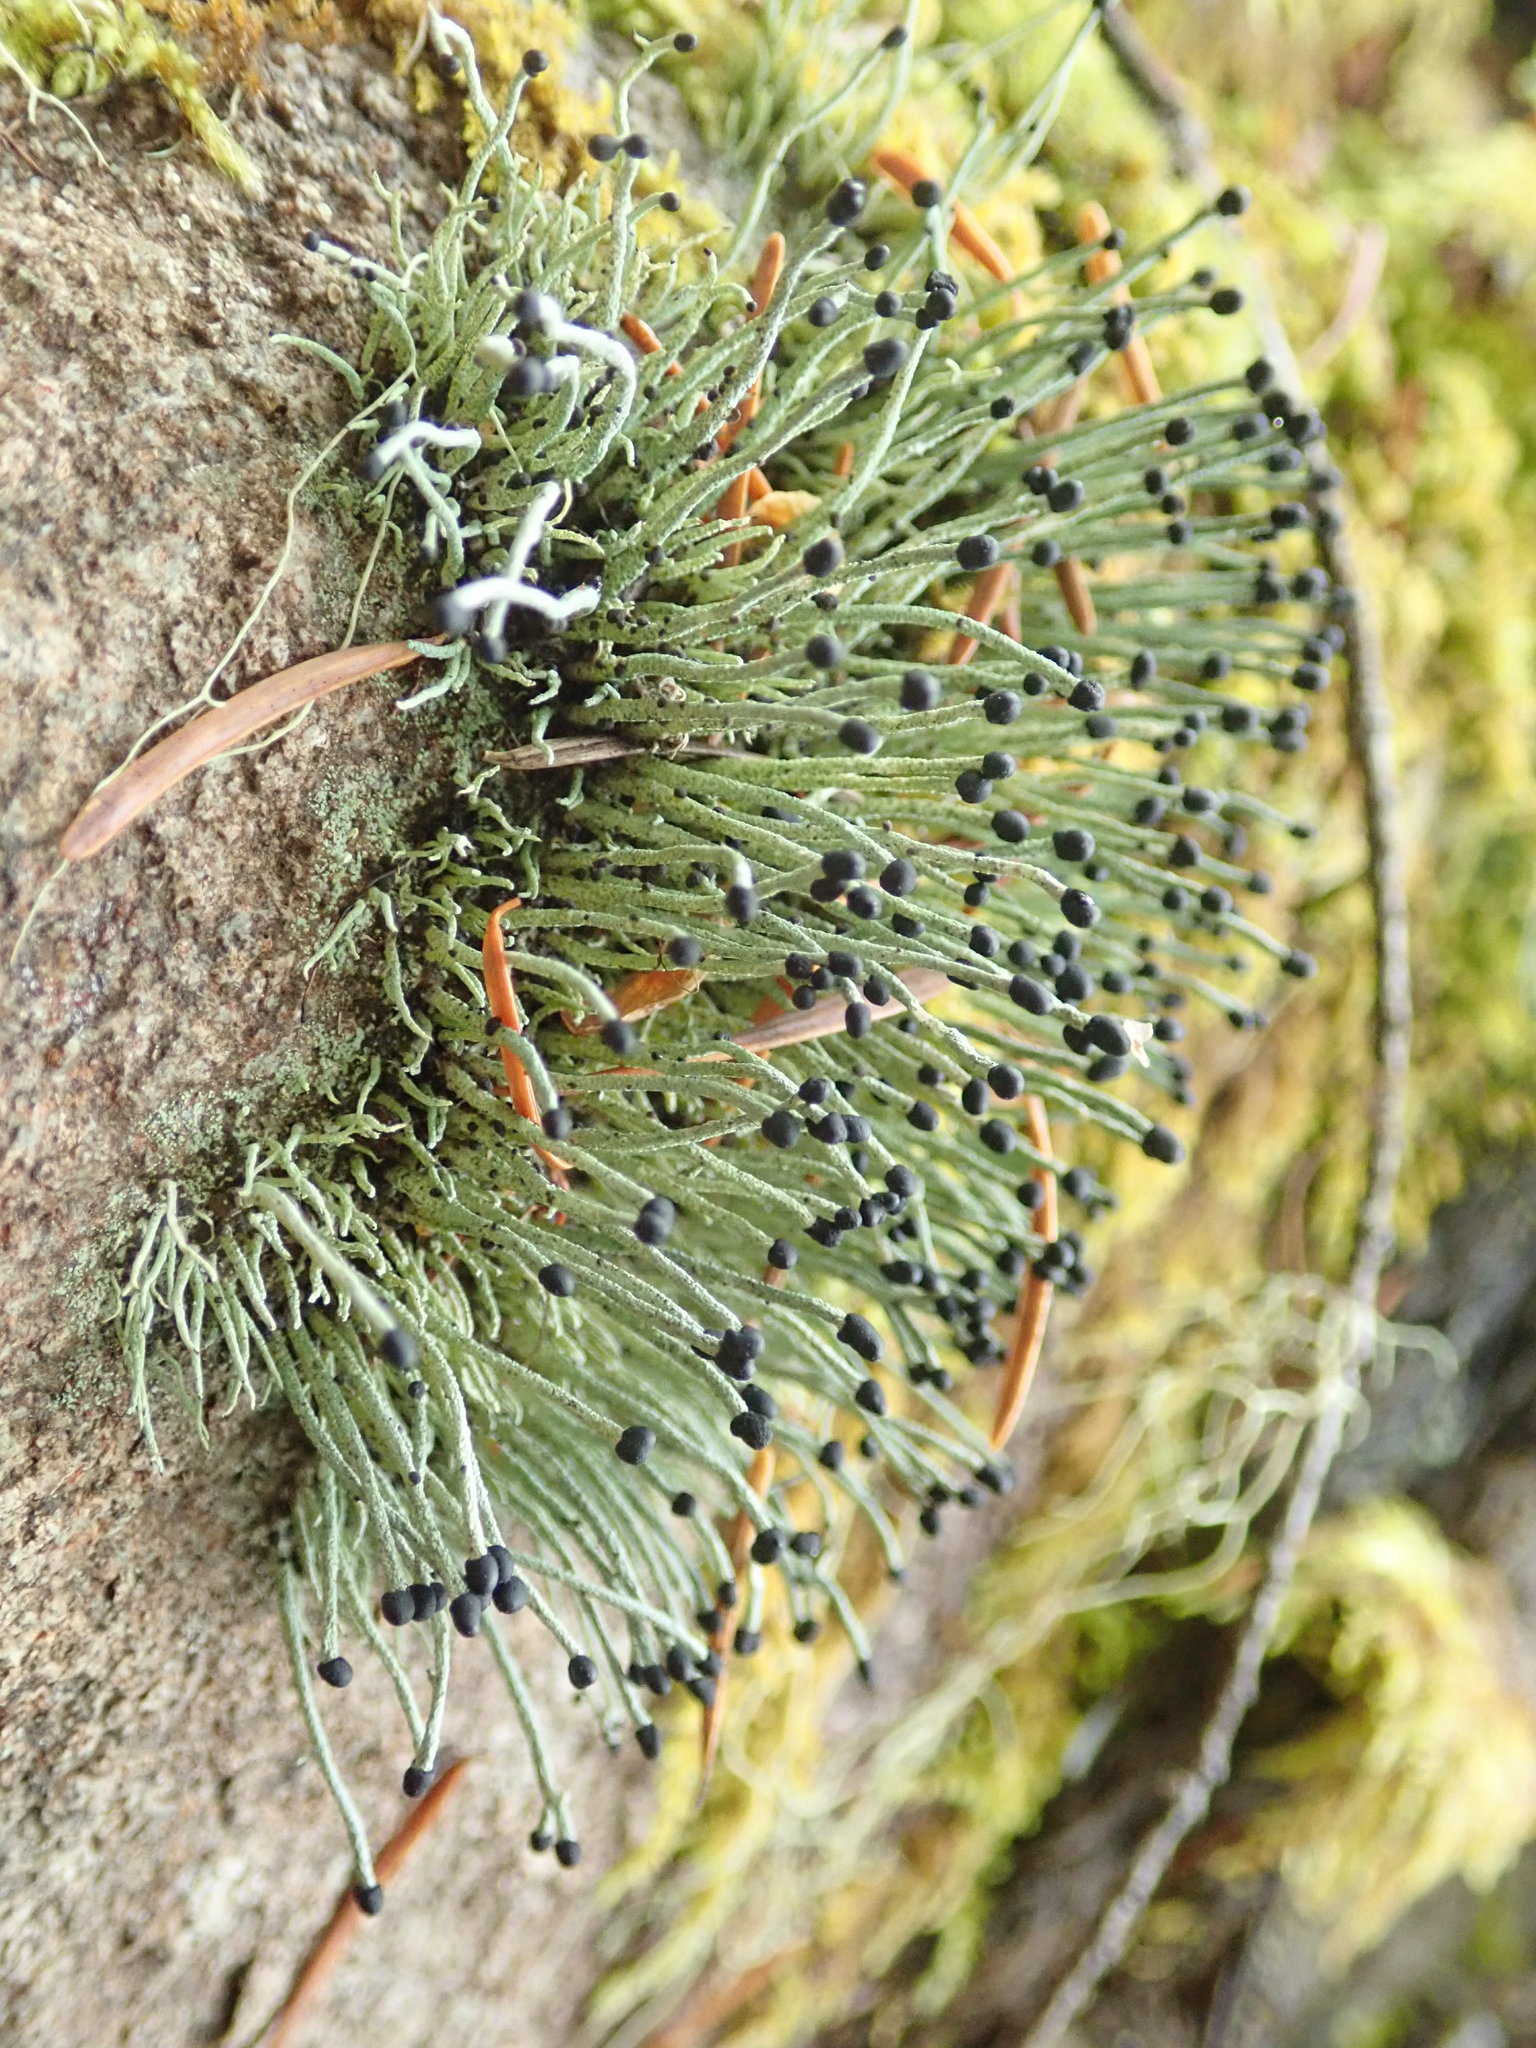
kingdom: Fungi
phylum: Ascomycota
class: Lecanoromycetes
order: Lecanorales
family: Cladoniaceae
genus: Pilophorus
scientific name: Pilophorus acicularis
